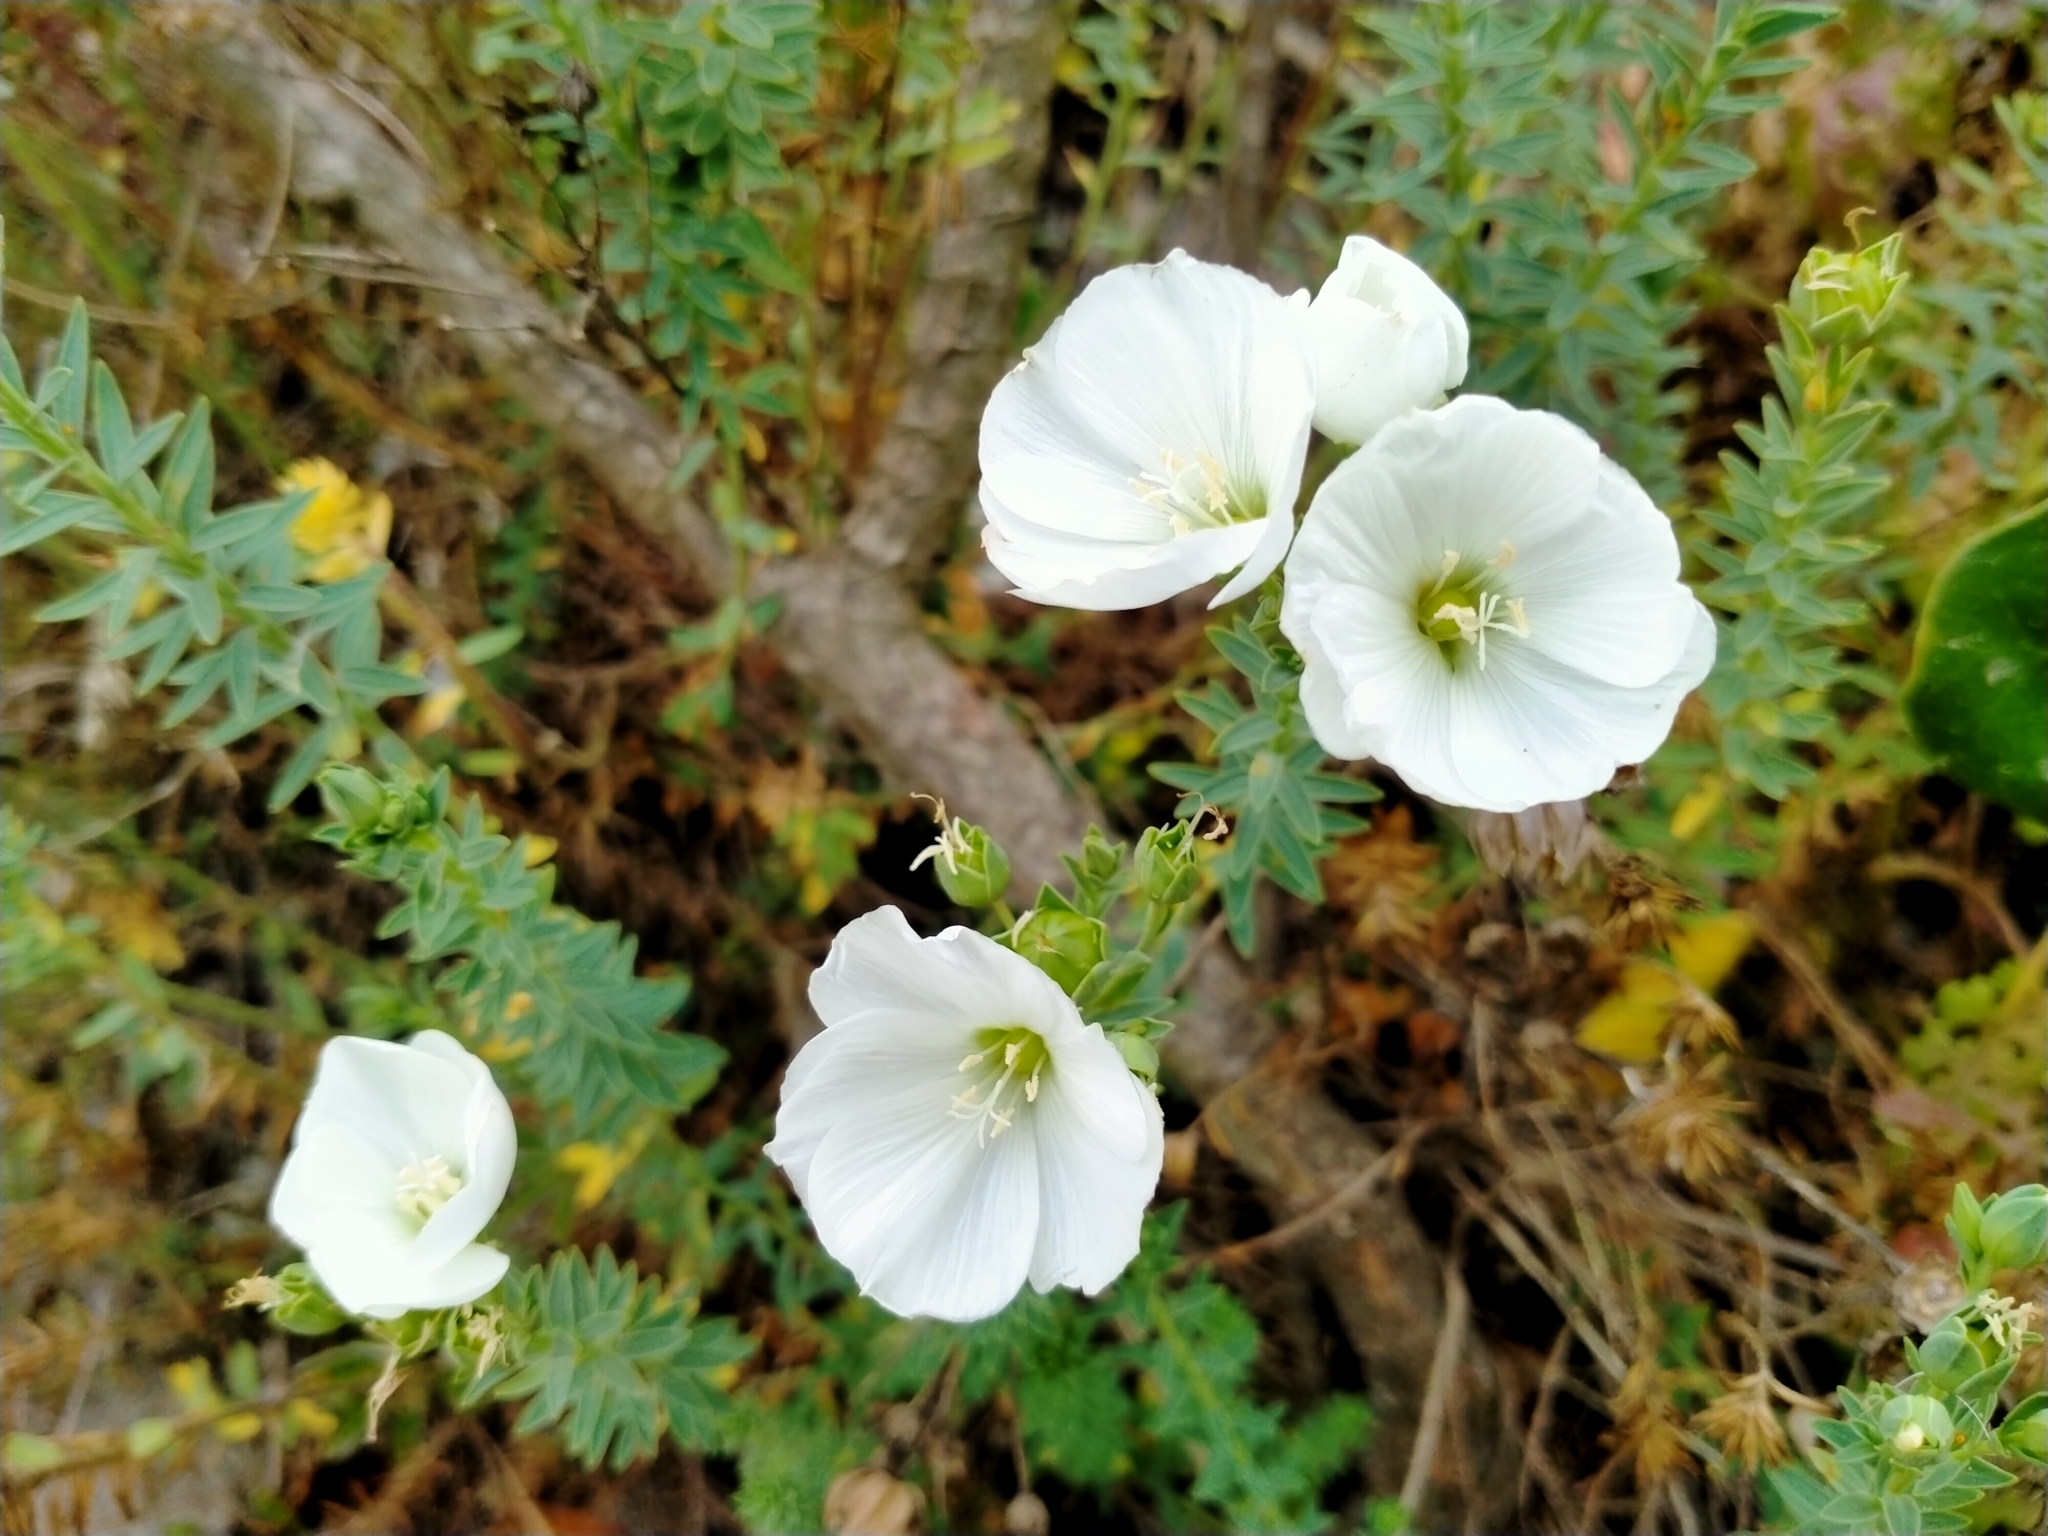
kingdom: Plantae
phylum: Tracheophyta
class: Magnoliopsida
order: Malpighiales
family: Linaceae
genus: Linum
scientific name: Linum monogynum
